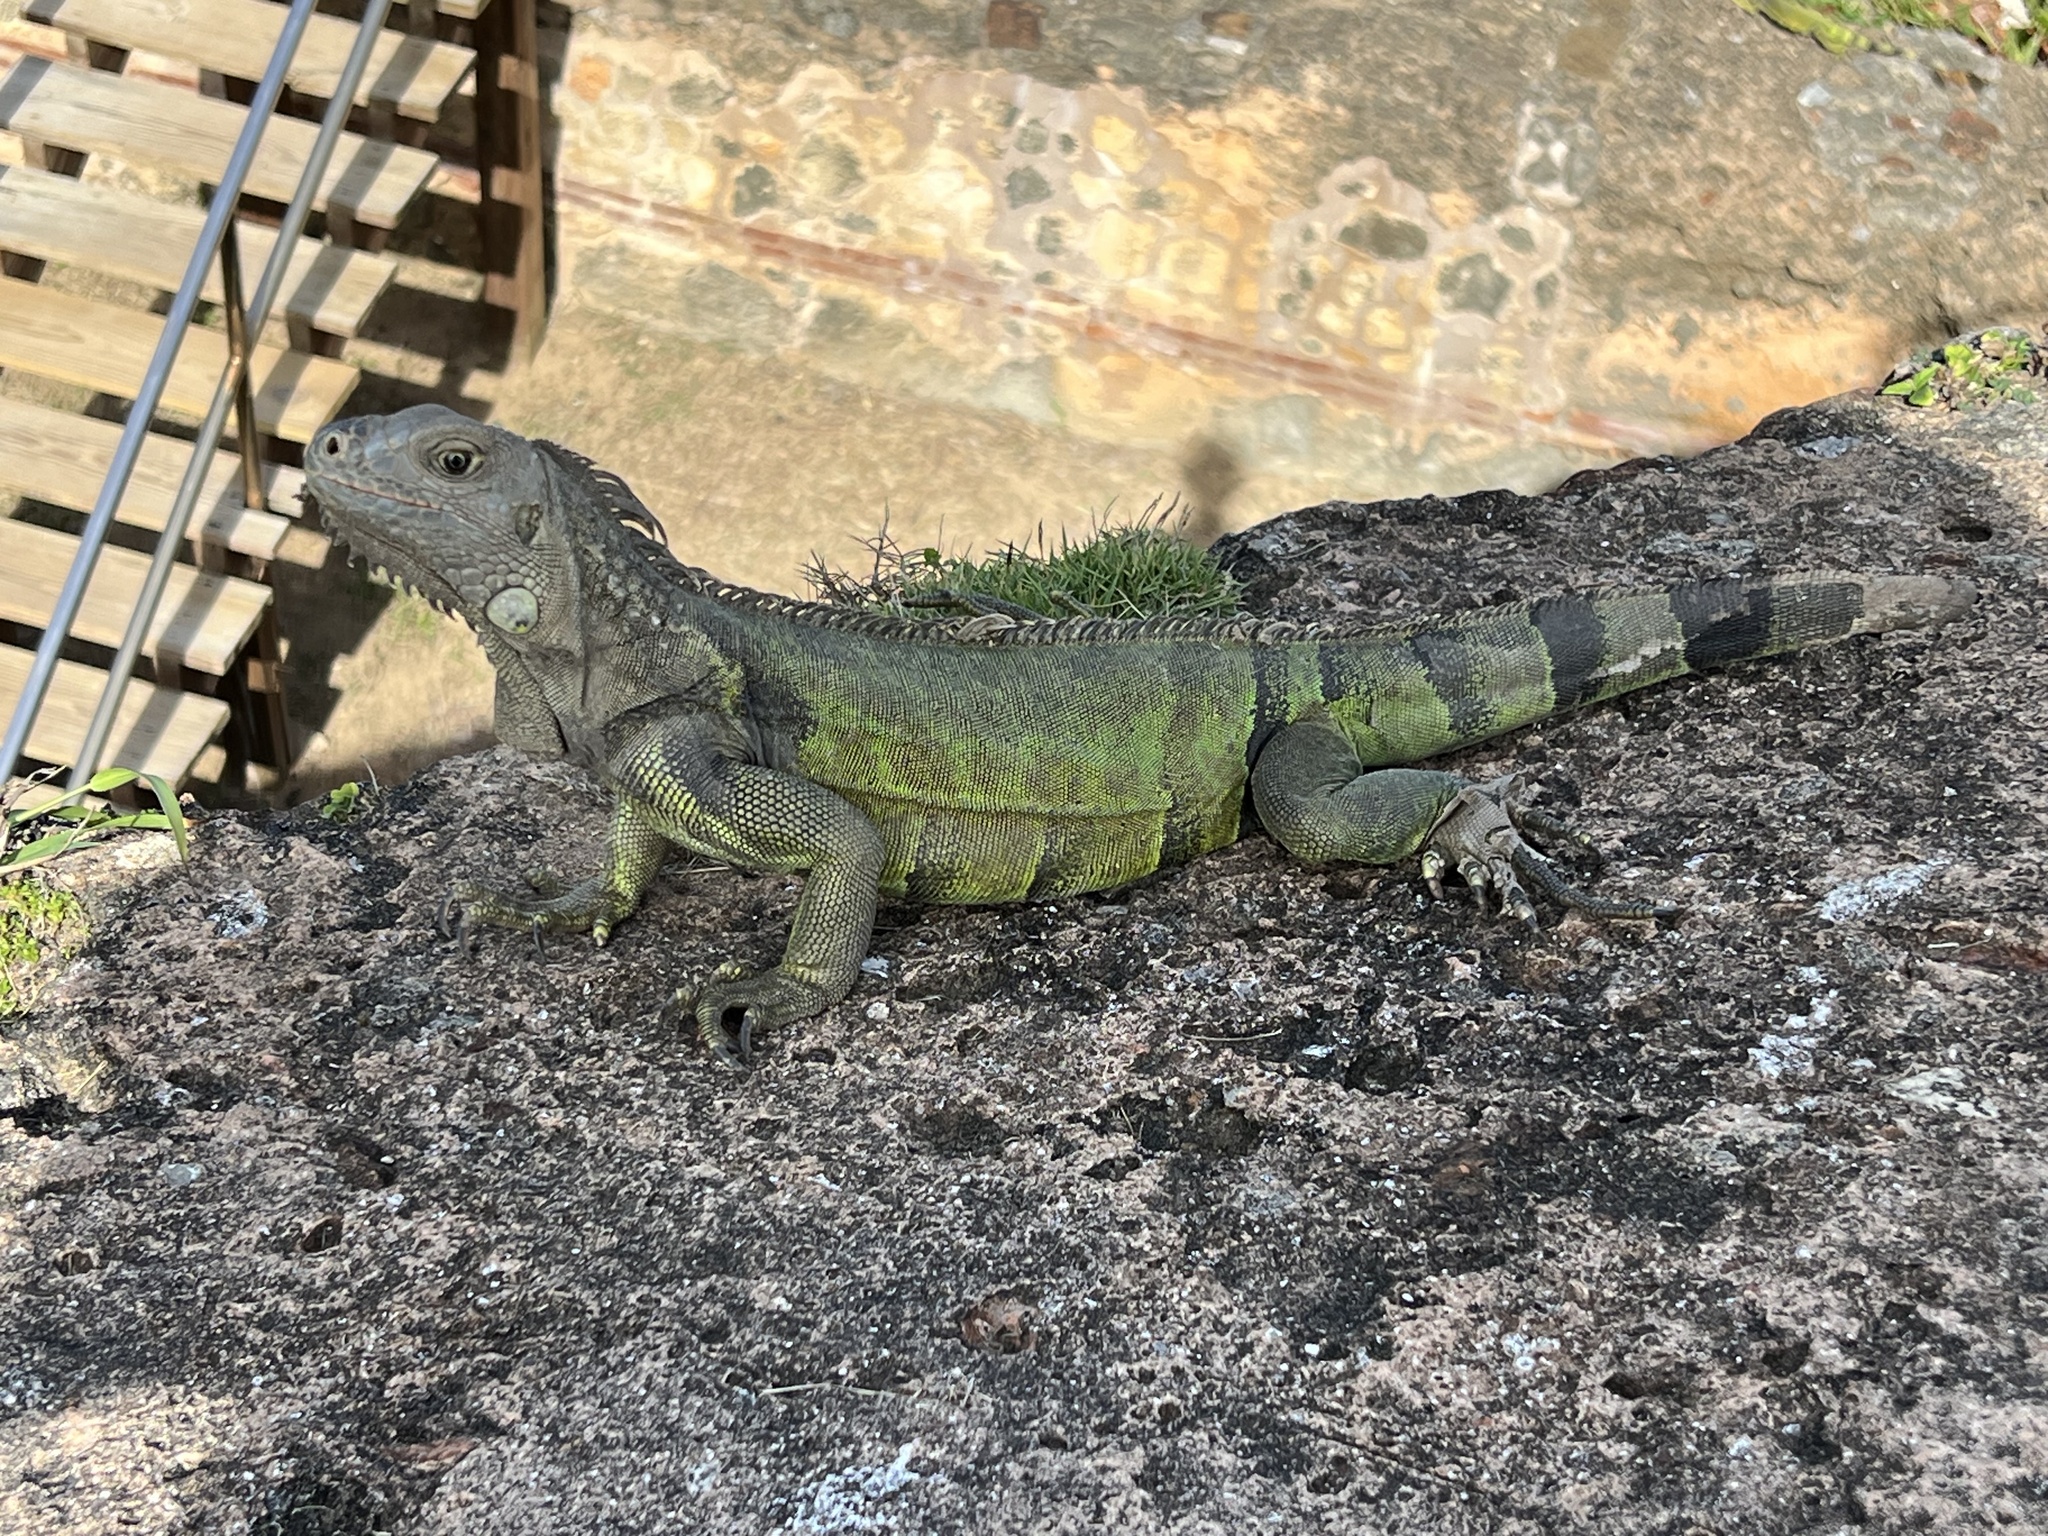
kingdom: Animalia
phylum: Chordata
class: Squamata
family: Iguanidae
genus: Iguana
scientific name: Iguana iguana
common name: Green iguana
